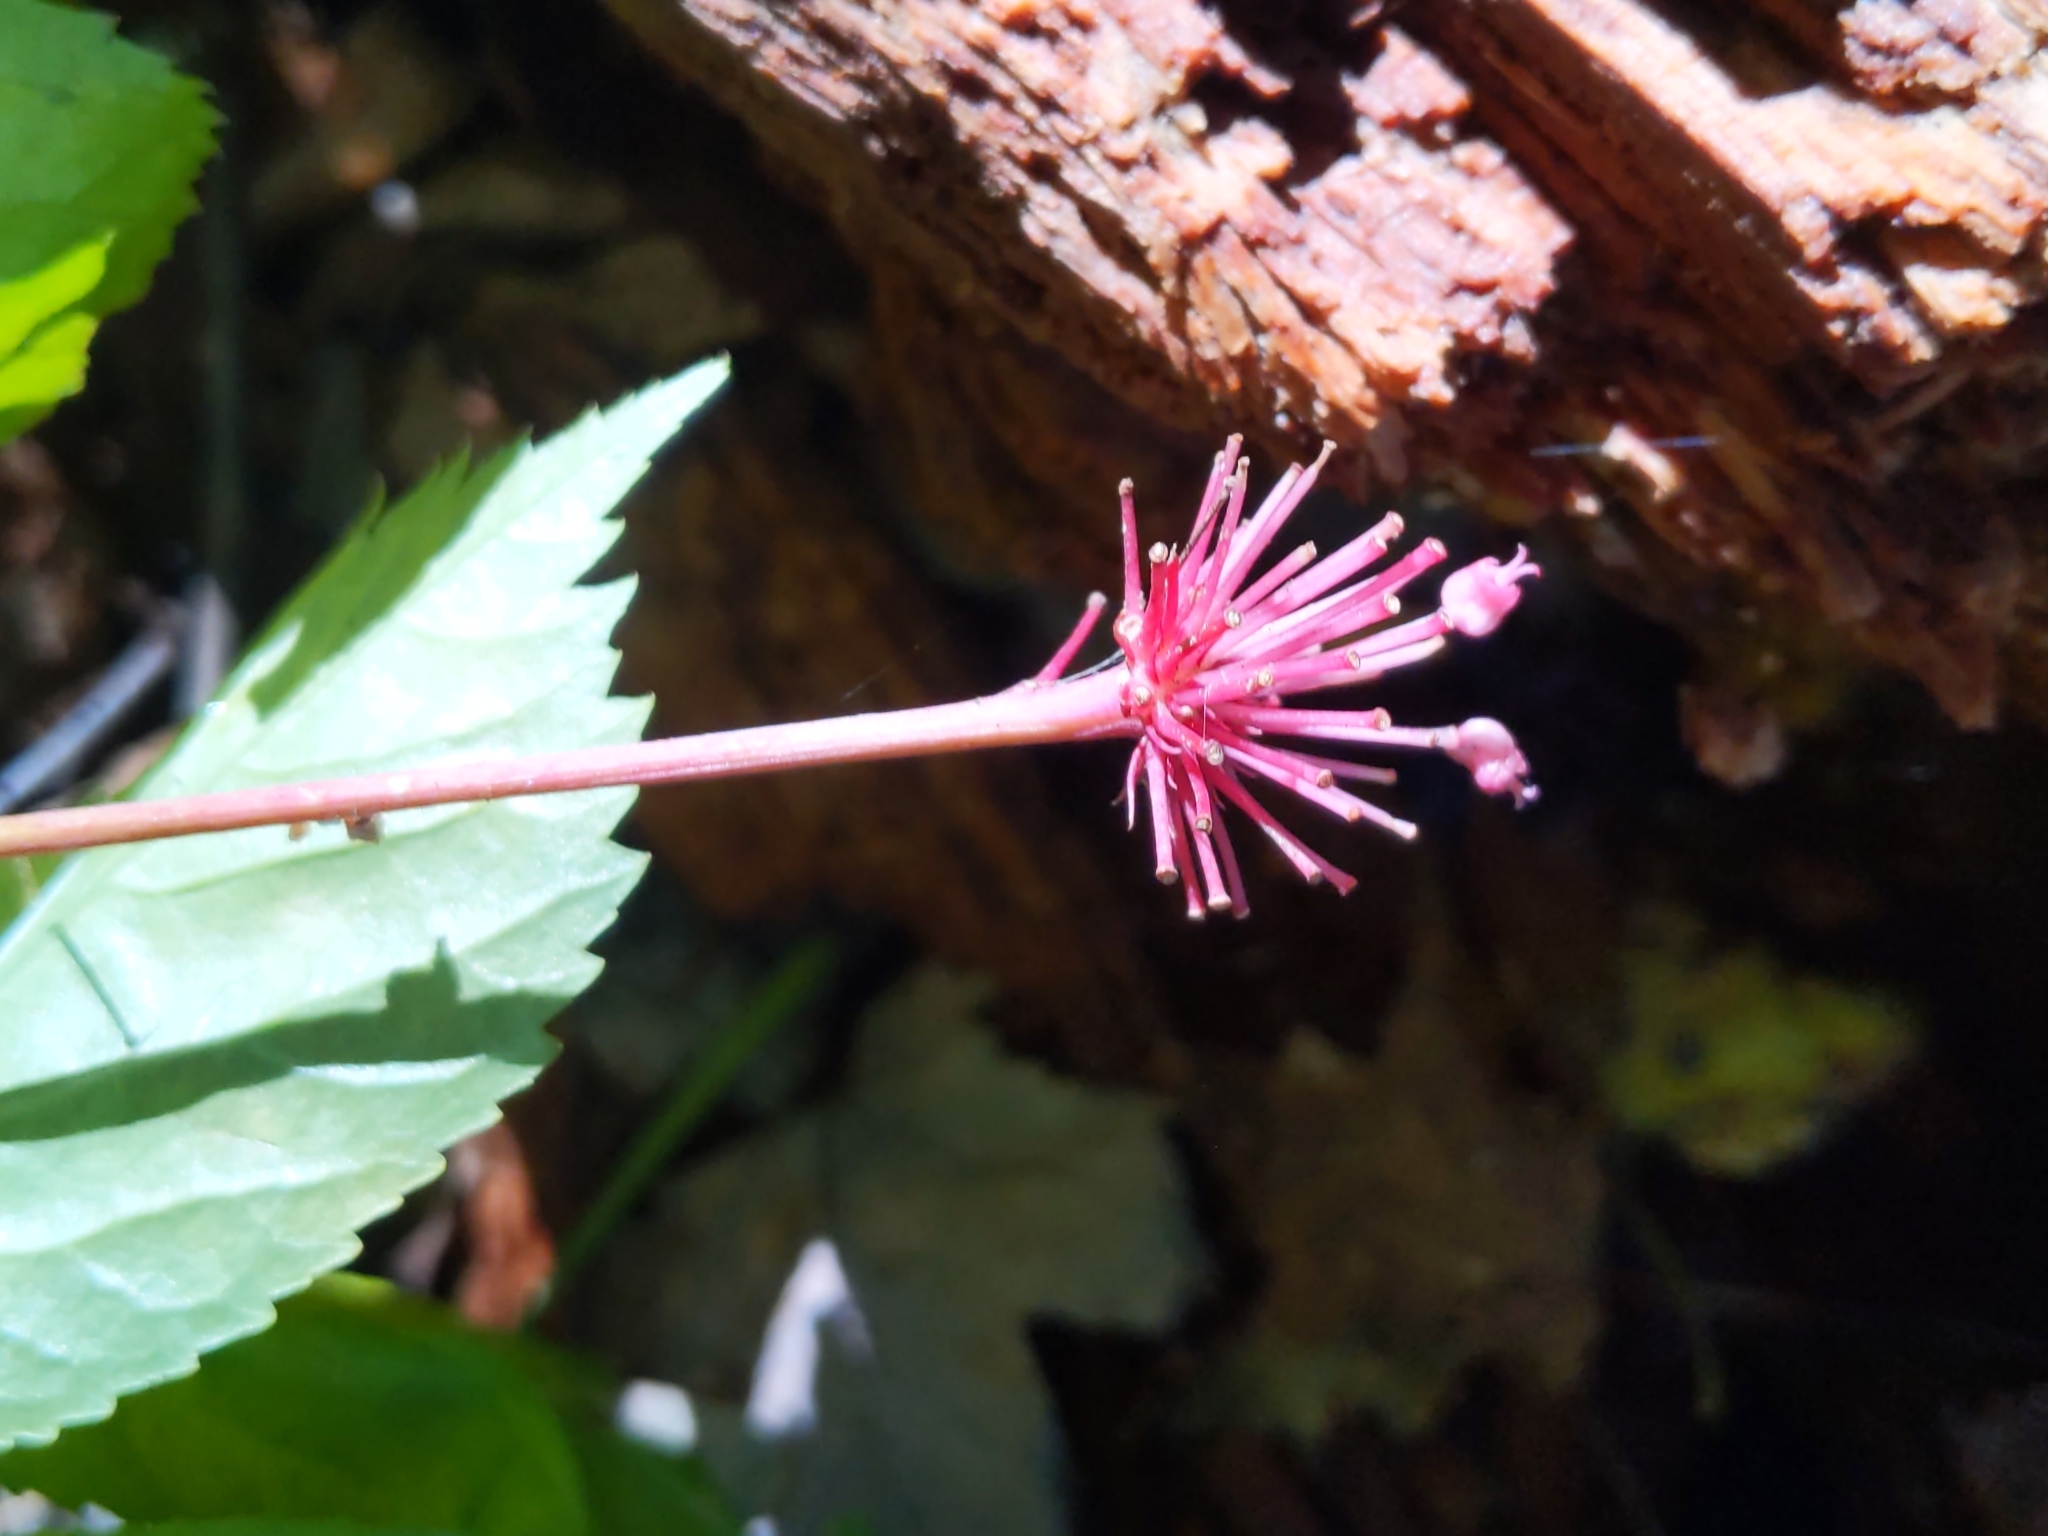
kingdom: Plantae
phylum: Tracheophyta
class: Magnoliopsida
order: Apiales
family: Araliaceae
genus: Panax
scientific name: Panax quinquefolius
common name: American ginseng
